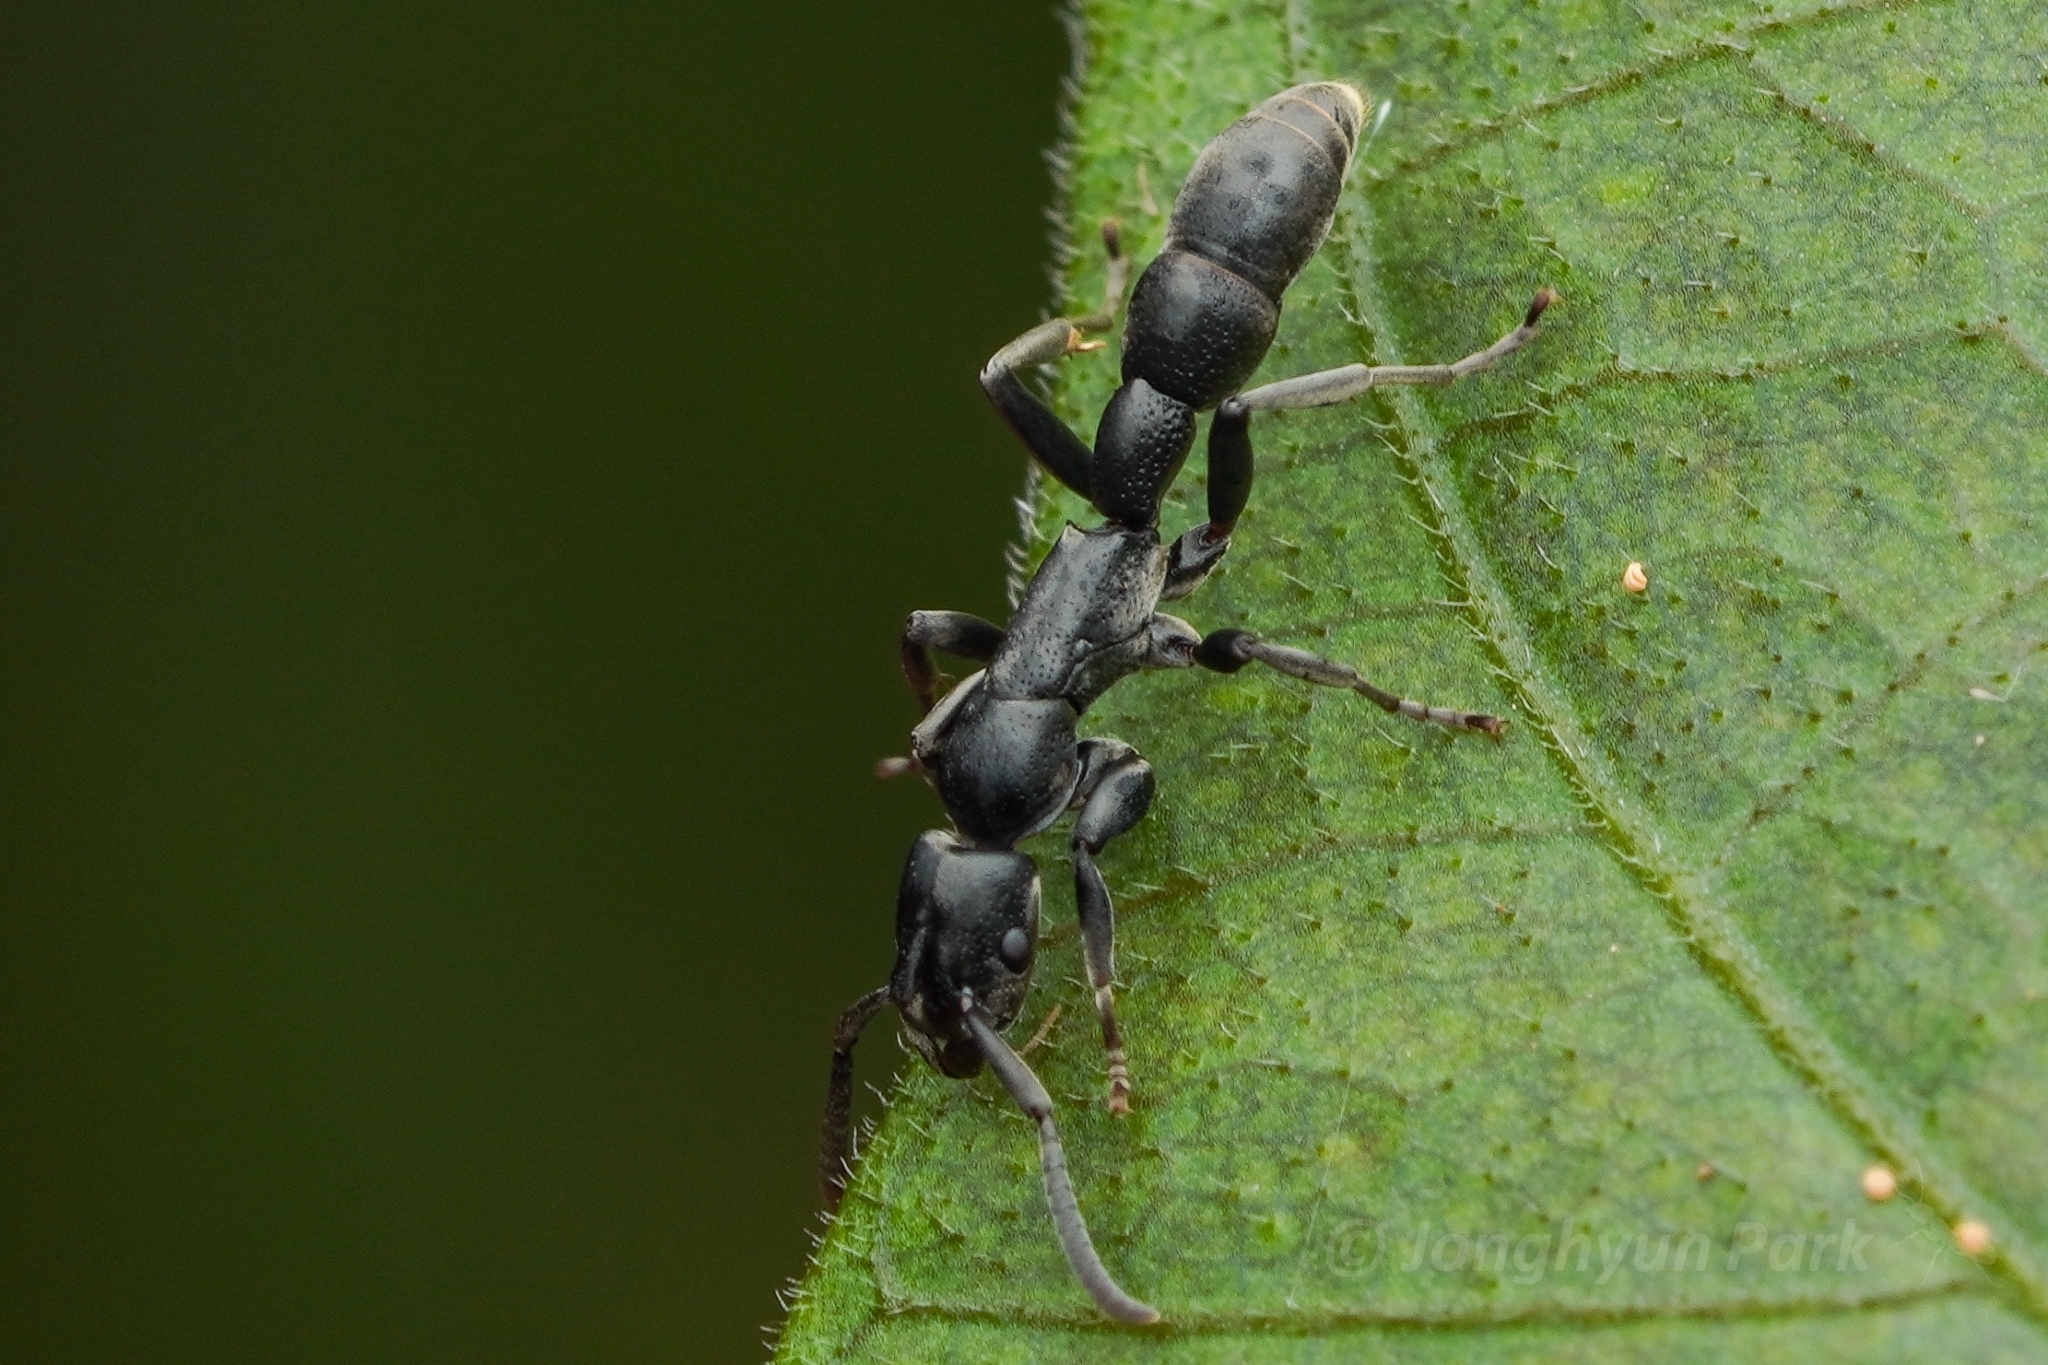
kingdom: Animalia
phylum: Arthropoda
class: Insecta
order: Hymenoptera
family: Formicidae
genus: Platythyrea
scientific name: Platythyrea angusta
